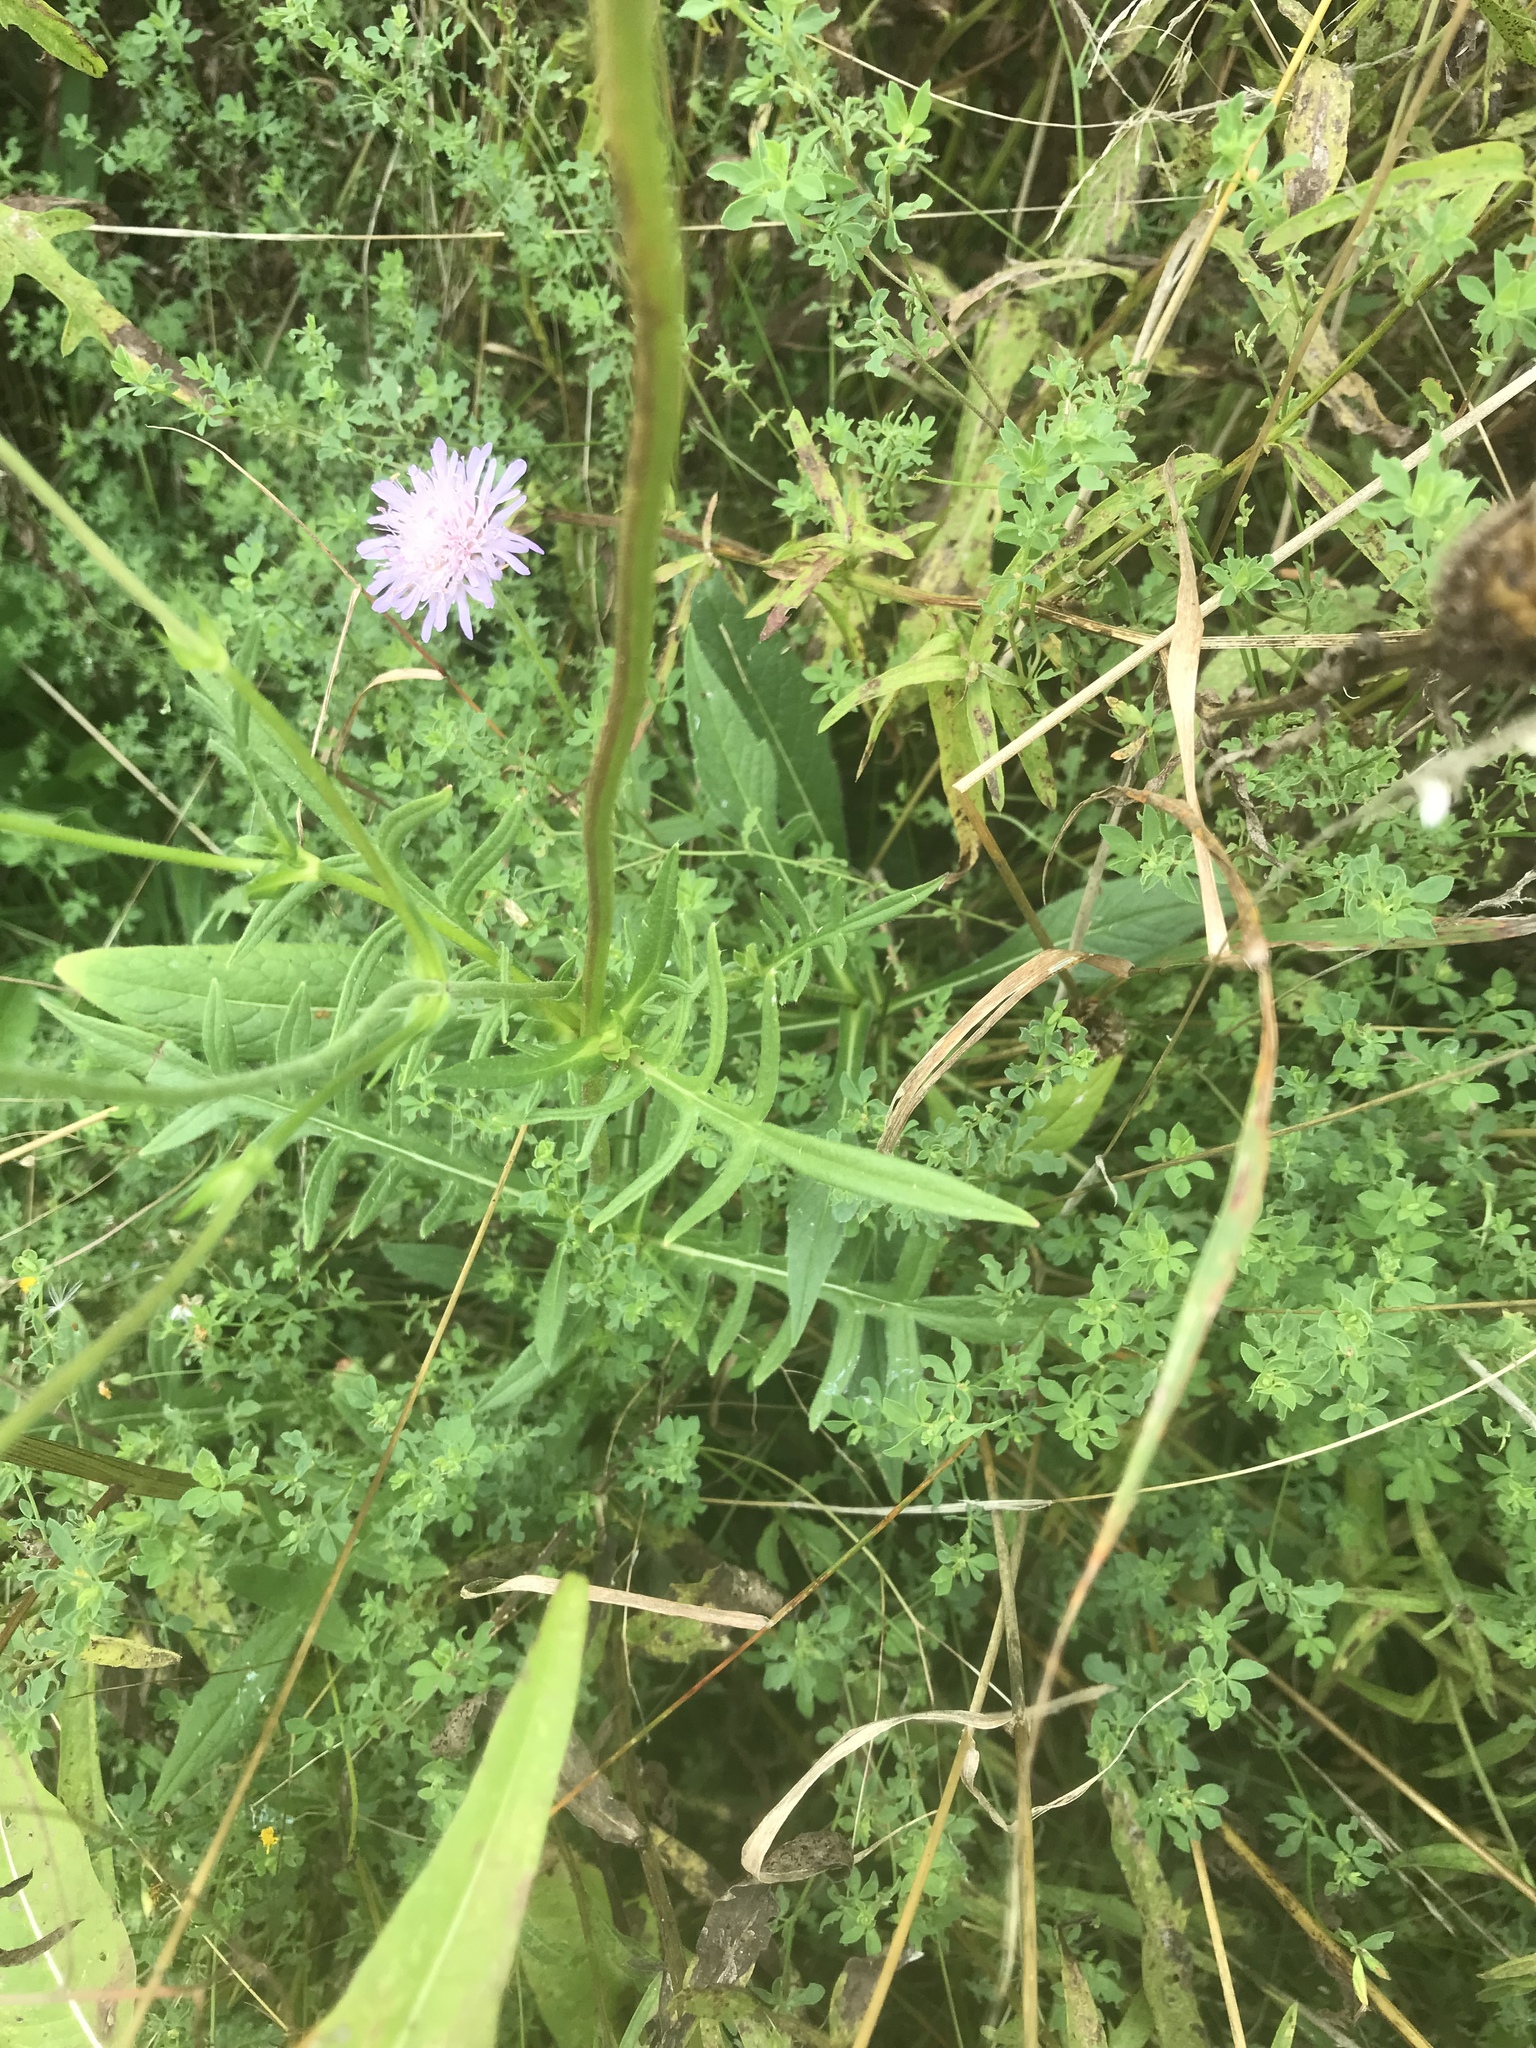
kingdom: Plantae
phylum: Tracheophyta
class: Magnoliopsida
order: Dipsacales
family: Caprifoliaceae
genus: Knautia
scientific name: Knautia arvensis
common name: Field scabiosa
